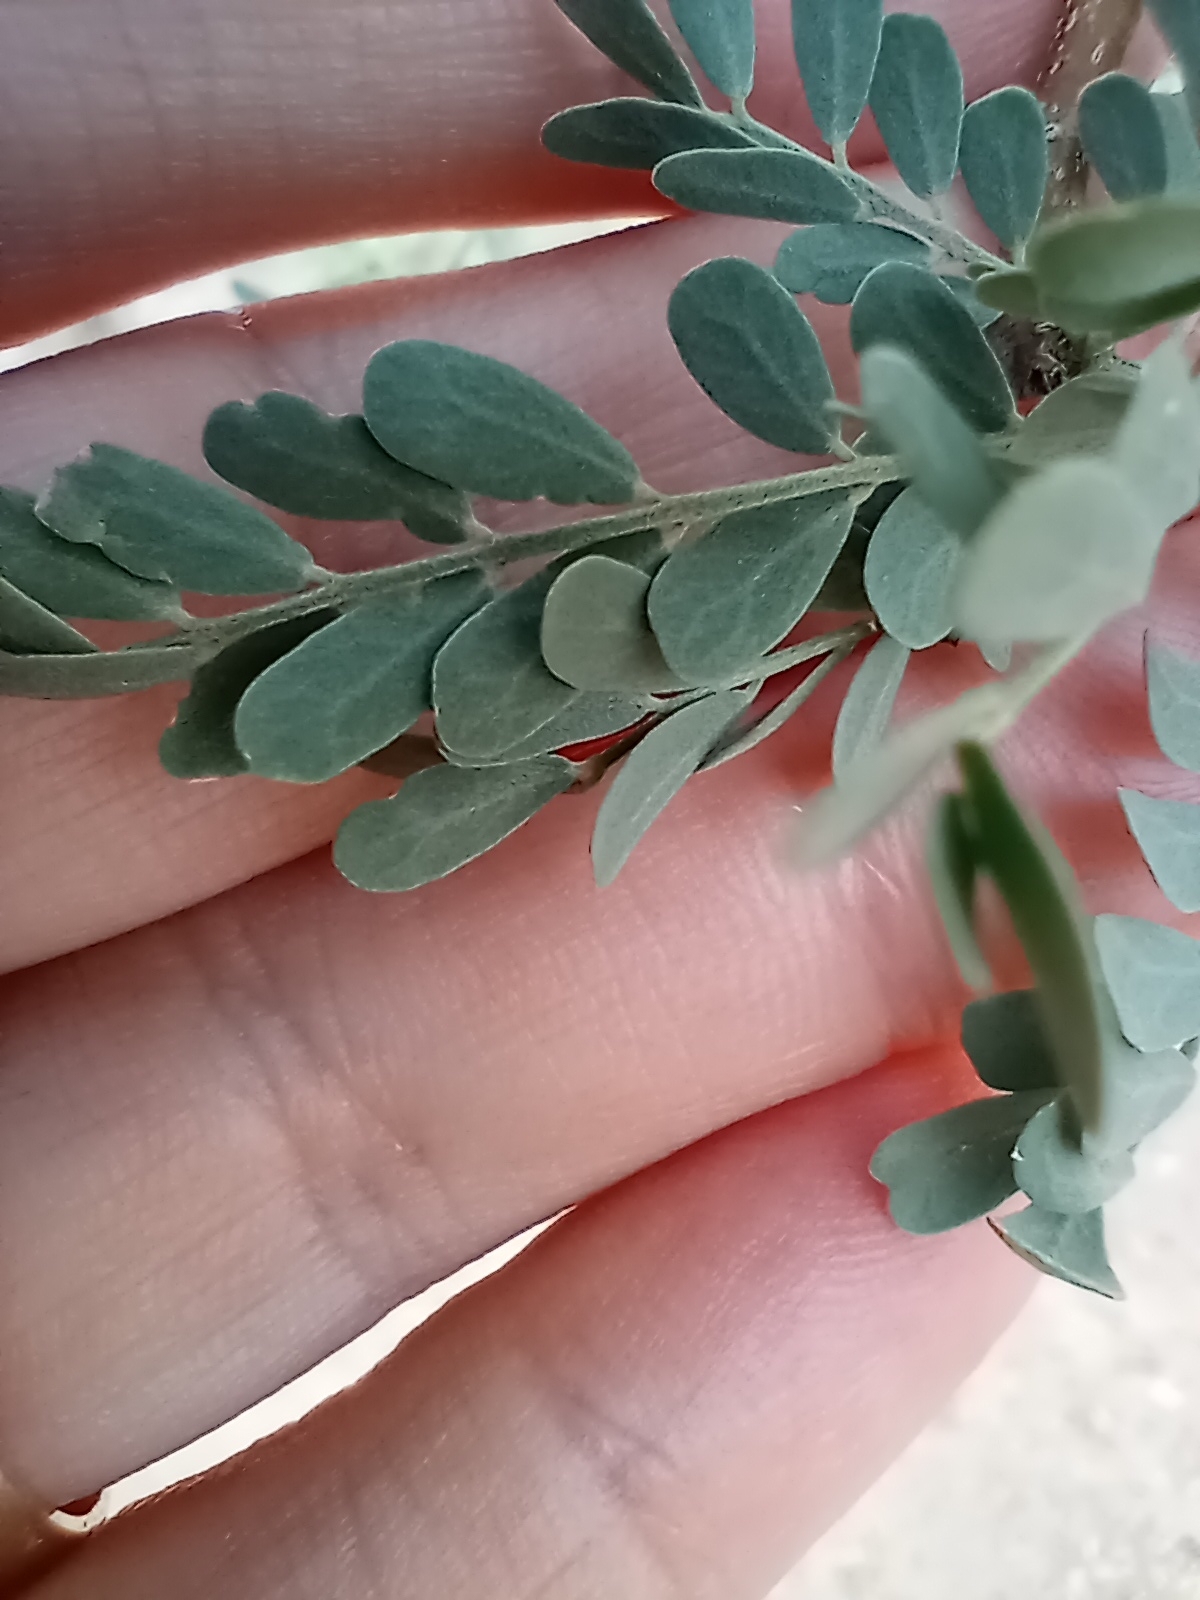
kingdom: Plantae
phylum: Tracheophyta
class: Magnoliopsida
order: Fabales
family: Fabaceae
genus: Olneya
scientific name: Olneya tesota
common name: Desert ironwood
